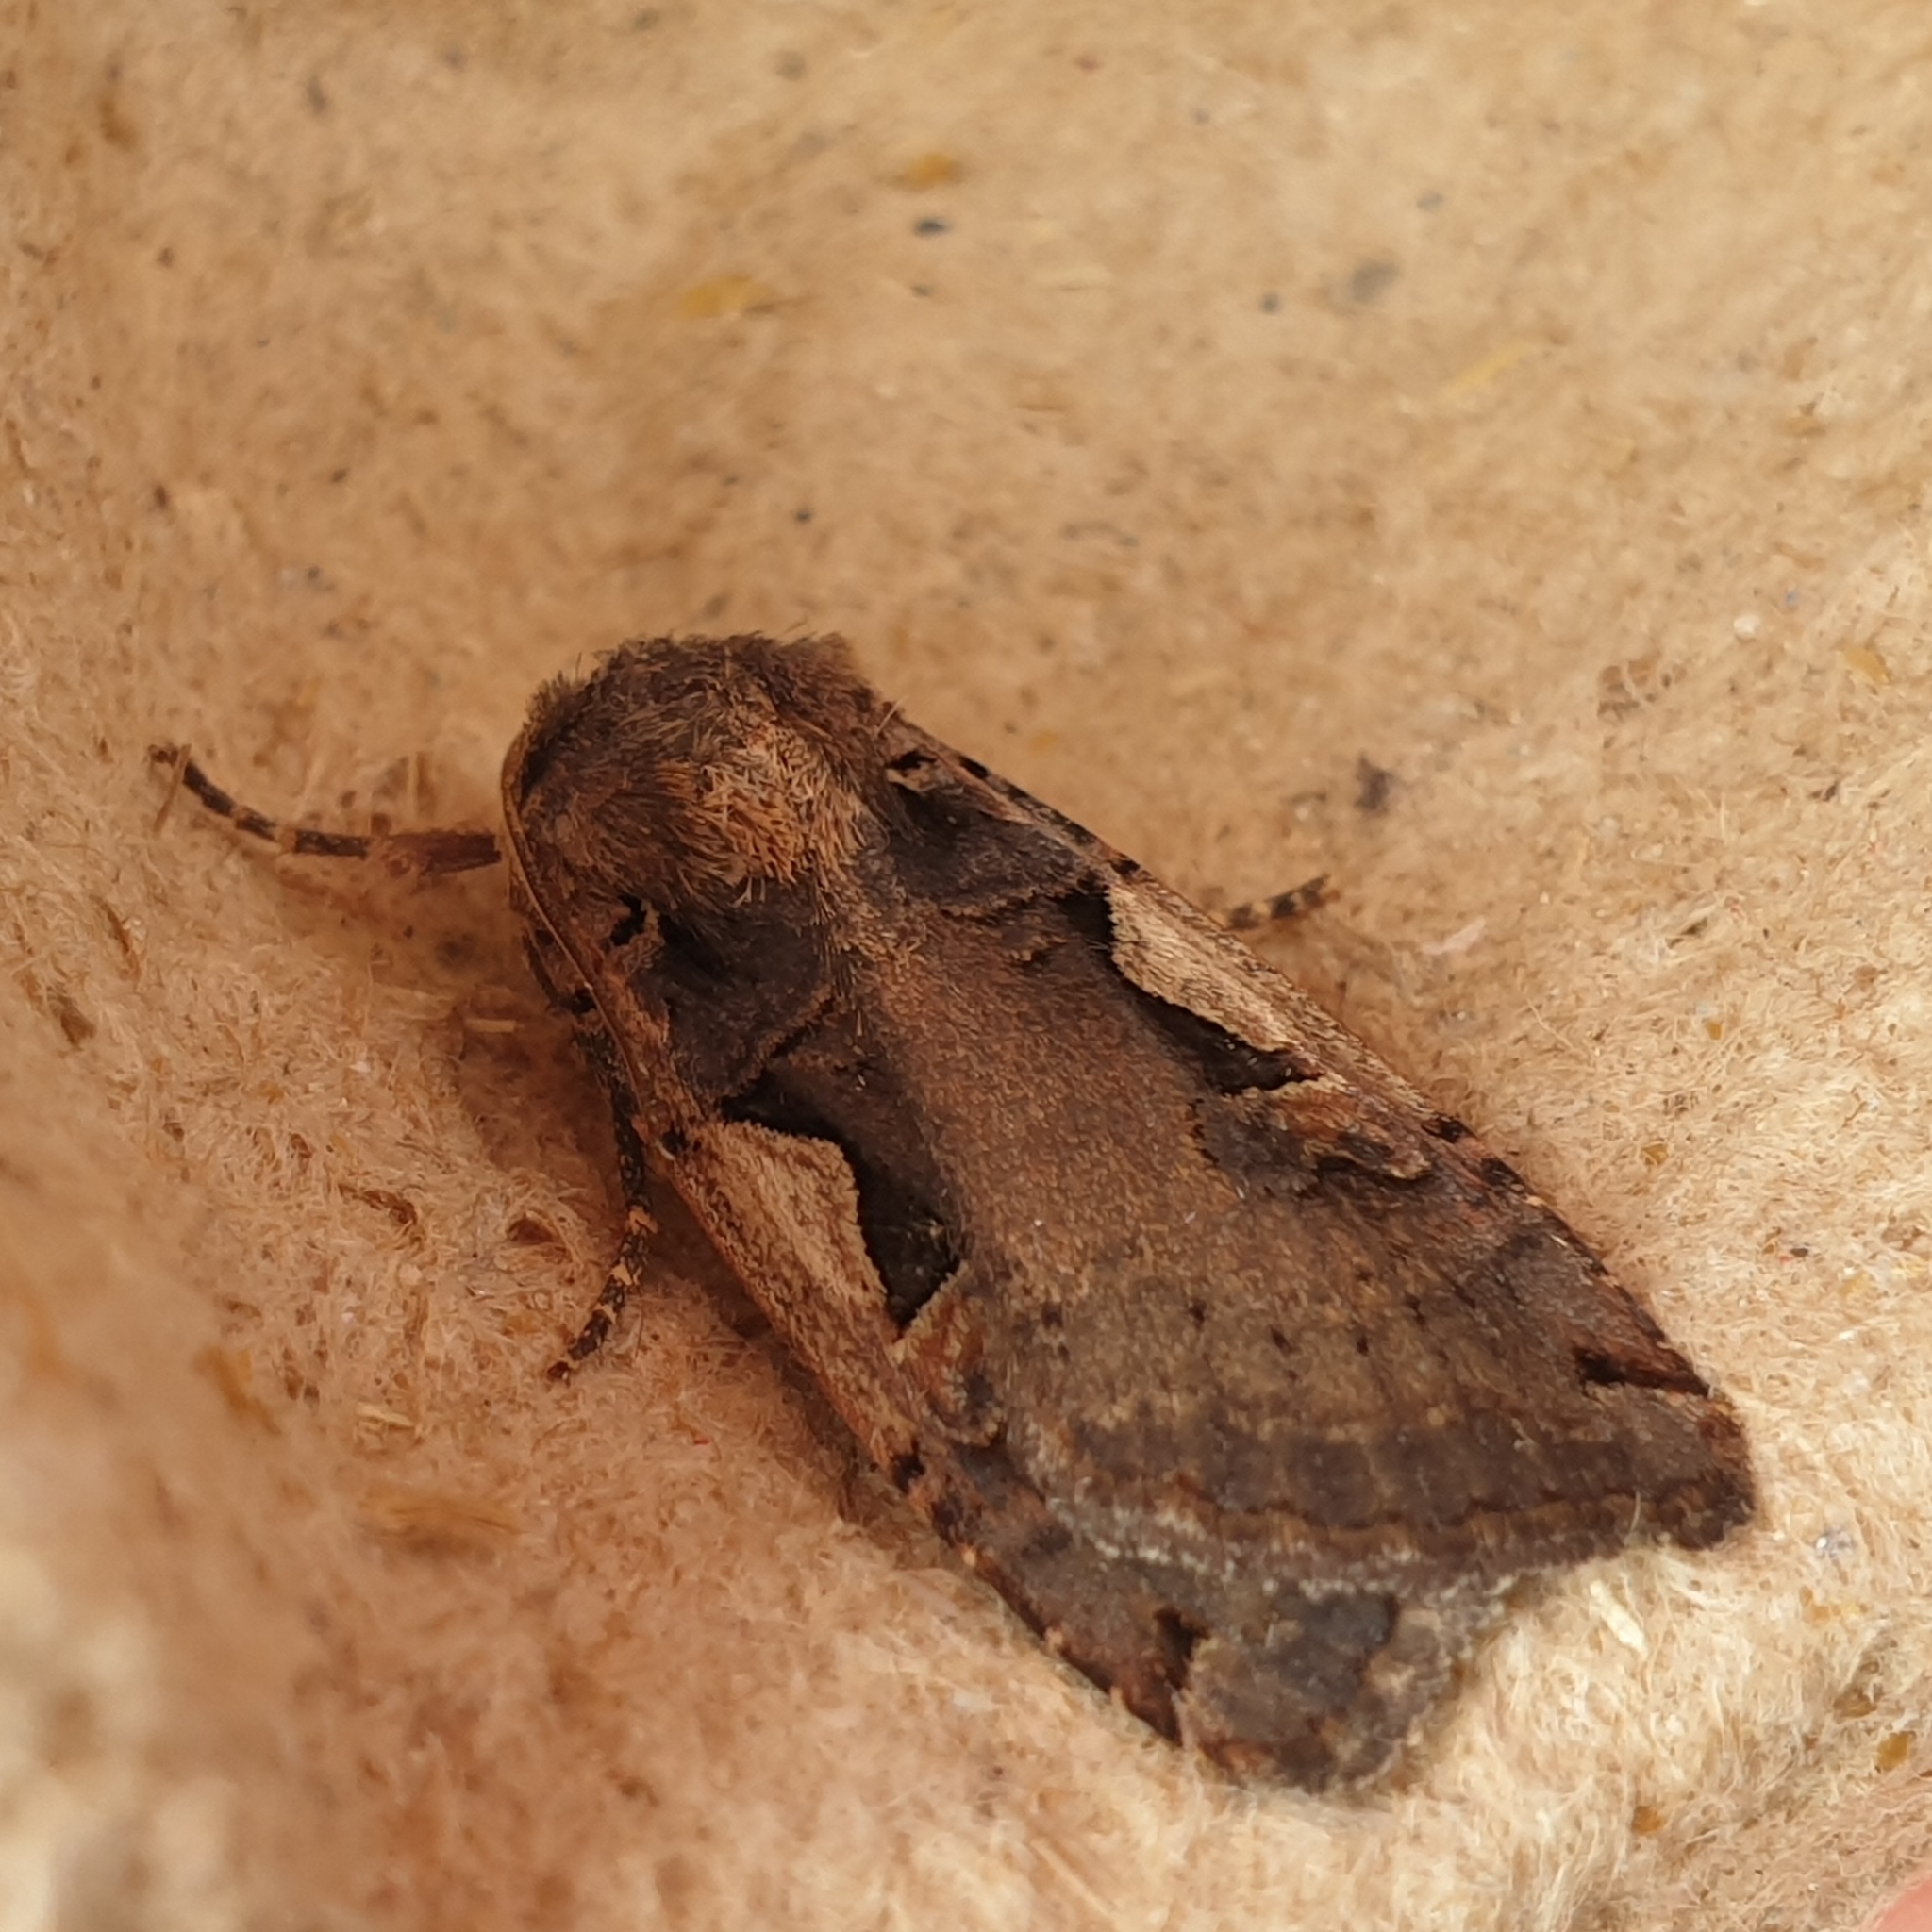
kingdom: Animalia
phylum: Arthropoda
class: Insecta
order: Lepidoptera
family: Noctuidae
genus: Xestia
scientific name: Xestia c-nigrum
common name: Setaceous hebrew character
